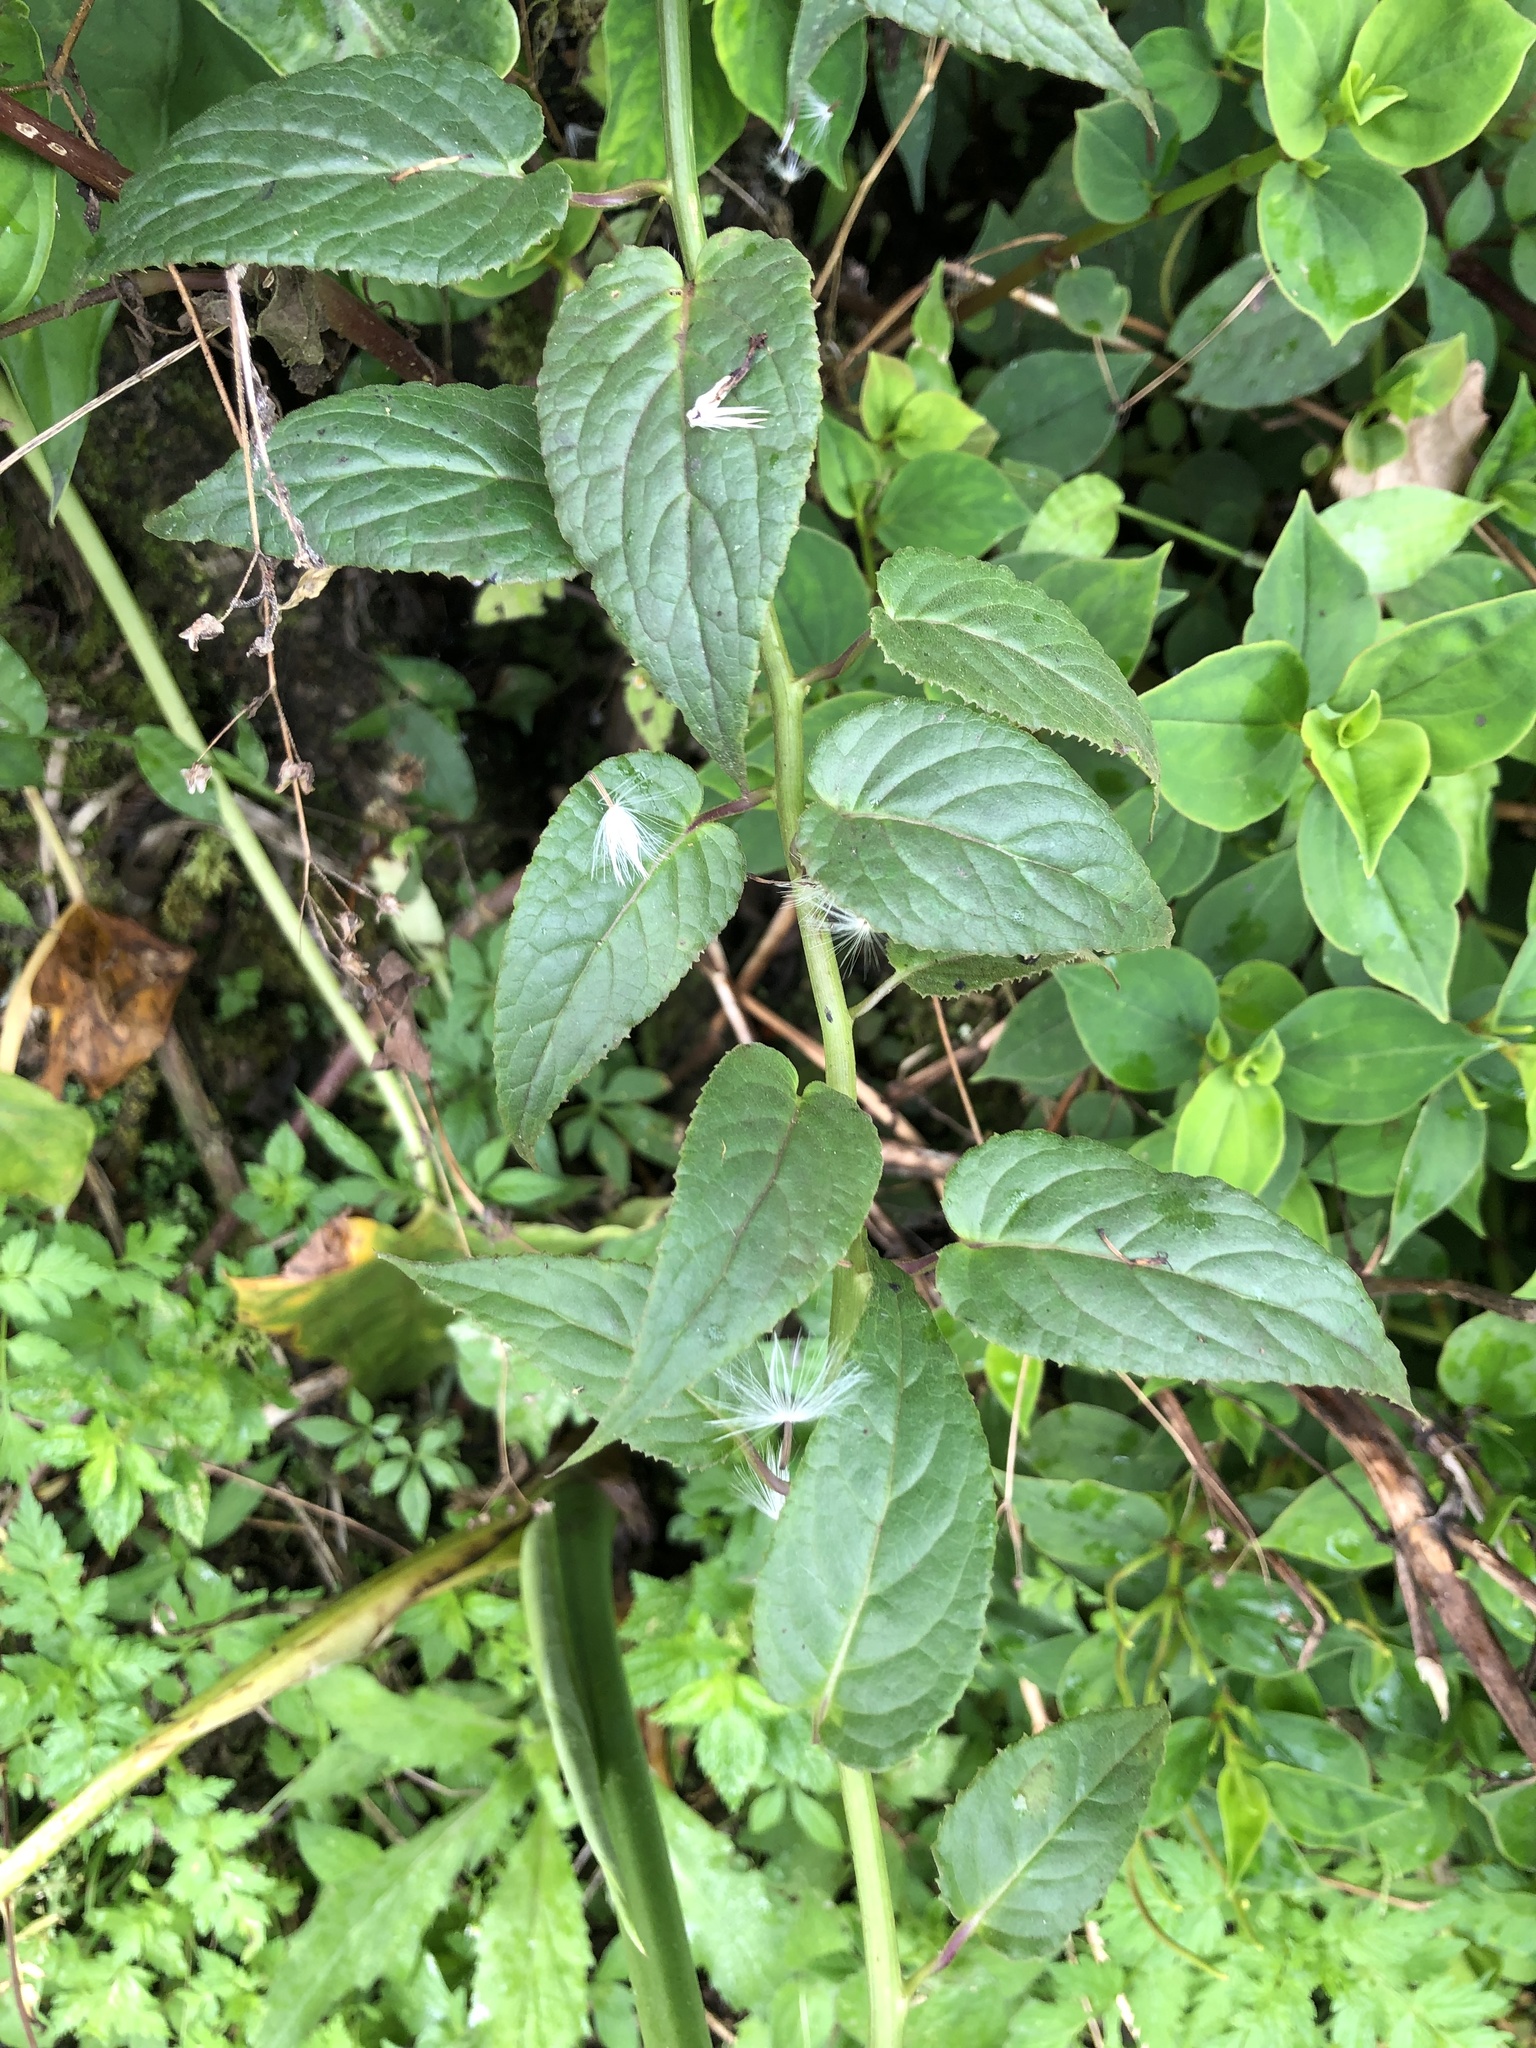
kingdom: Plantae
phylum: Tracheophyta
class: Magnoliopsida
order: Asterales
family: Asteraceae
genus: Pseudogynoxys
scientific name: Pseudogynoxys cumingii
